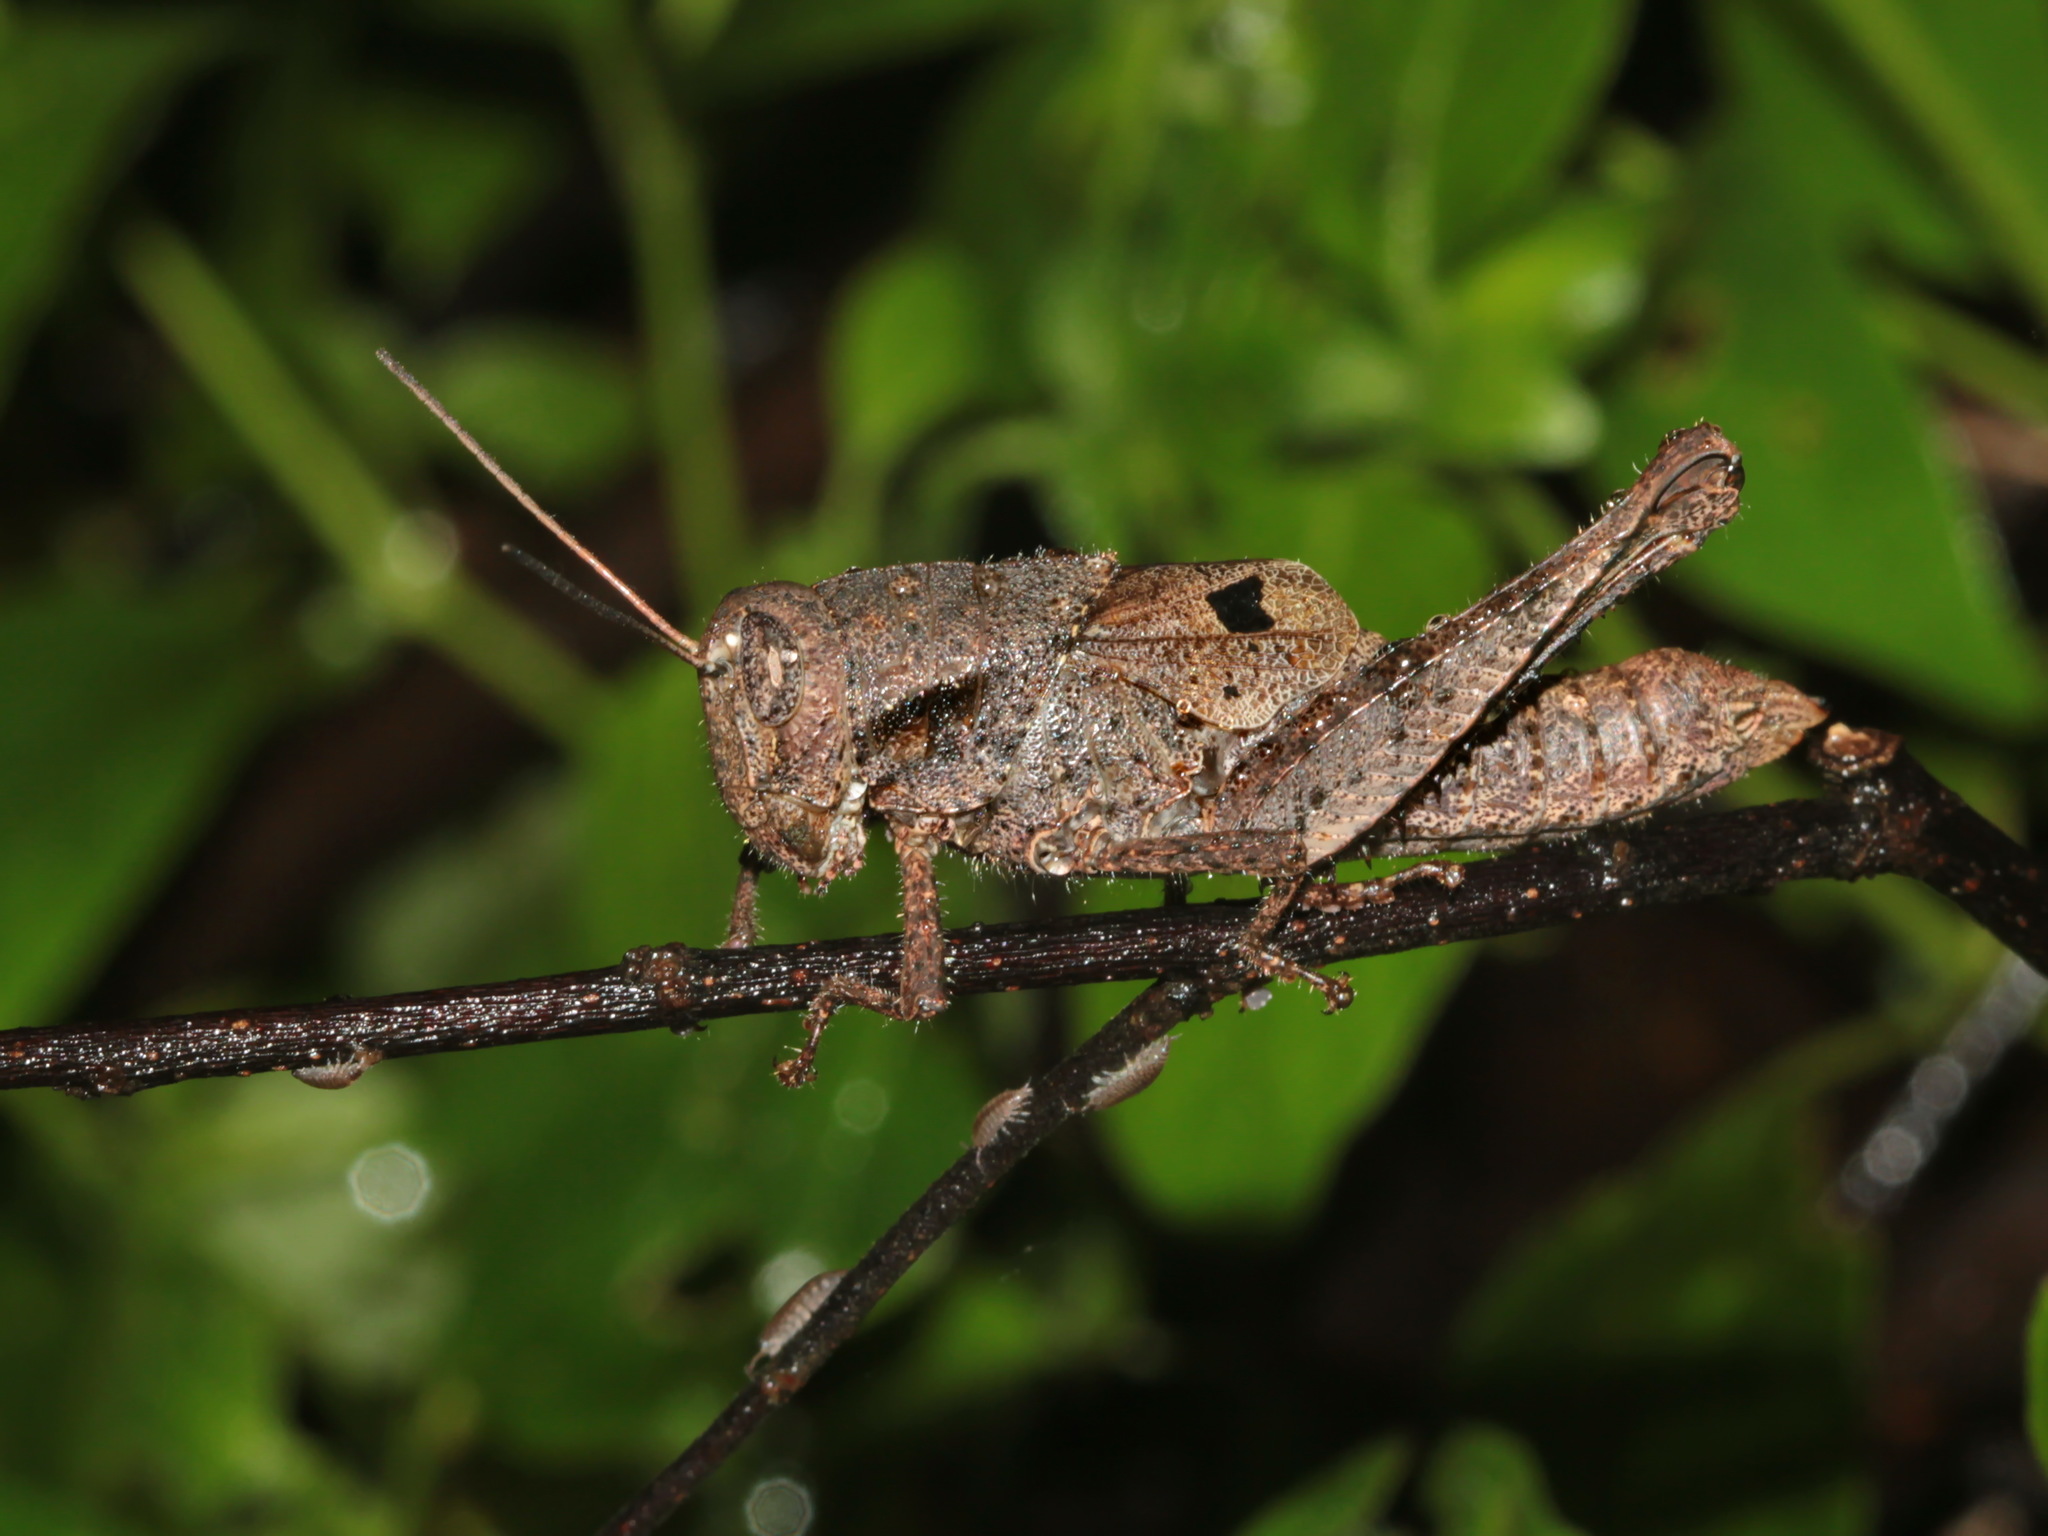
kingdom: Animalia
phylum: Arthropoda
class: Insecta
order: Orthoptera
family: Acrididae
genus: Gerenia
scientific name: Gerenia ambulans
